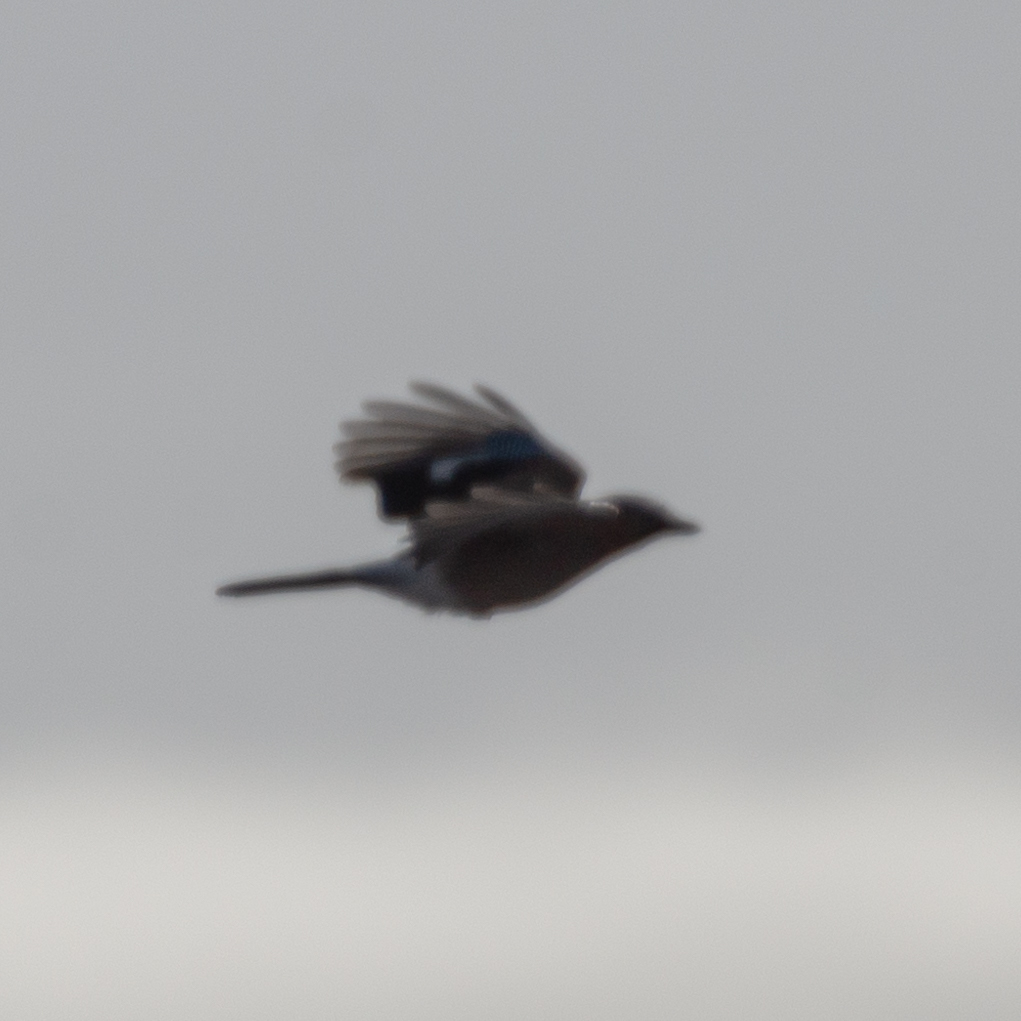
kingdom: Animalia
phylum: Chordata
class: Aves
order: Passeriformes
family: Corvidae
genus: Garrulus
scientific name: Garrulus glandarius
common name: Eurasian jay
